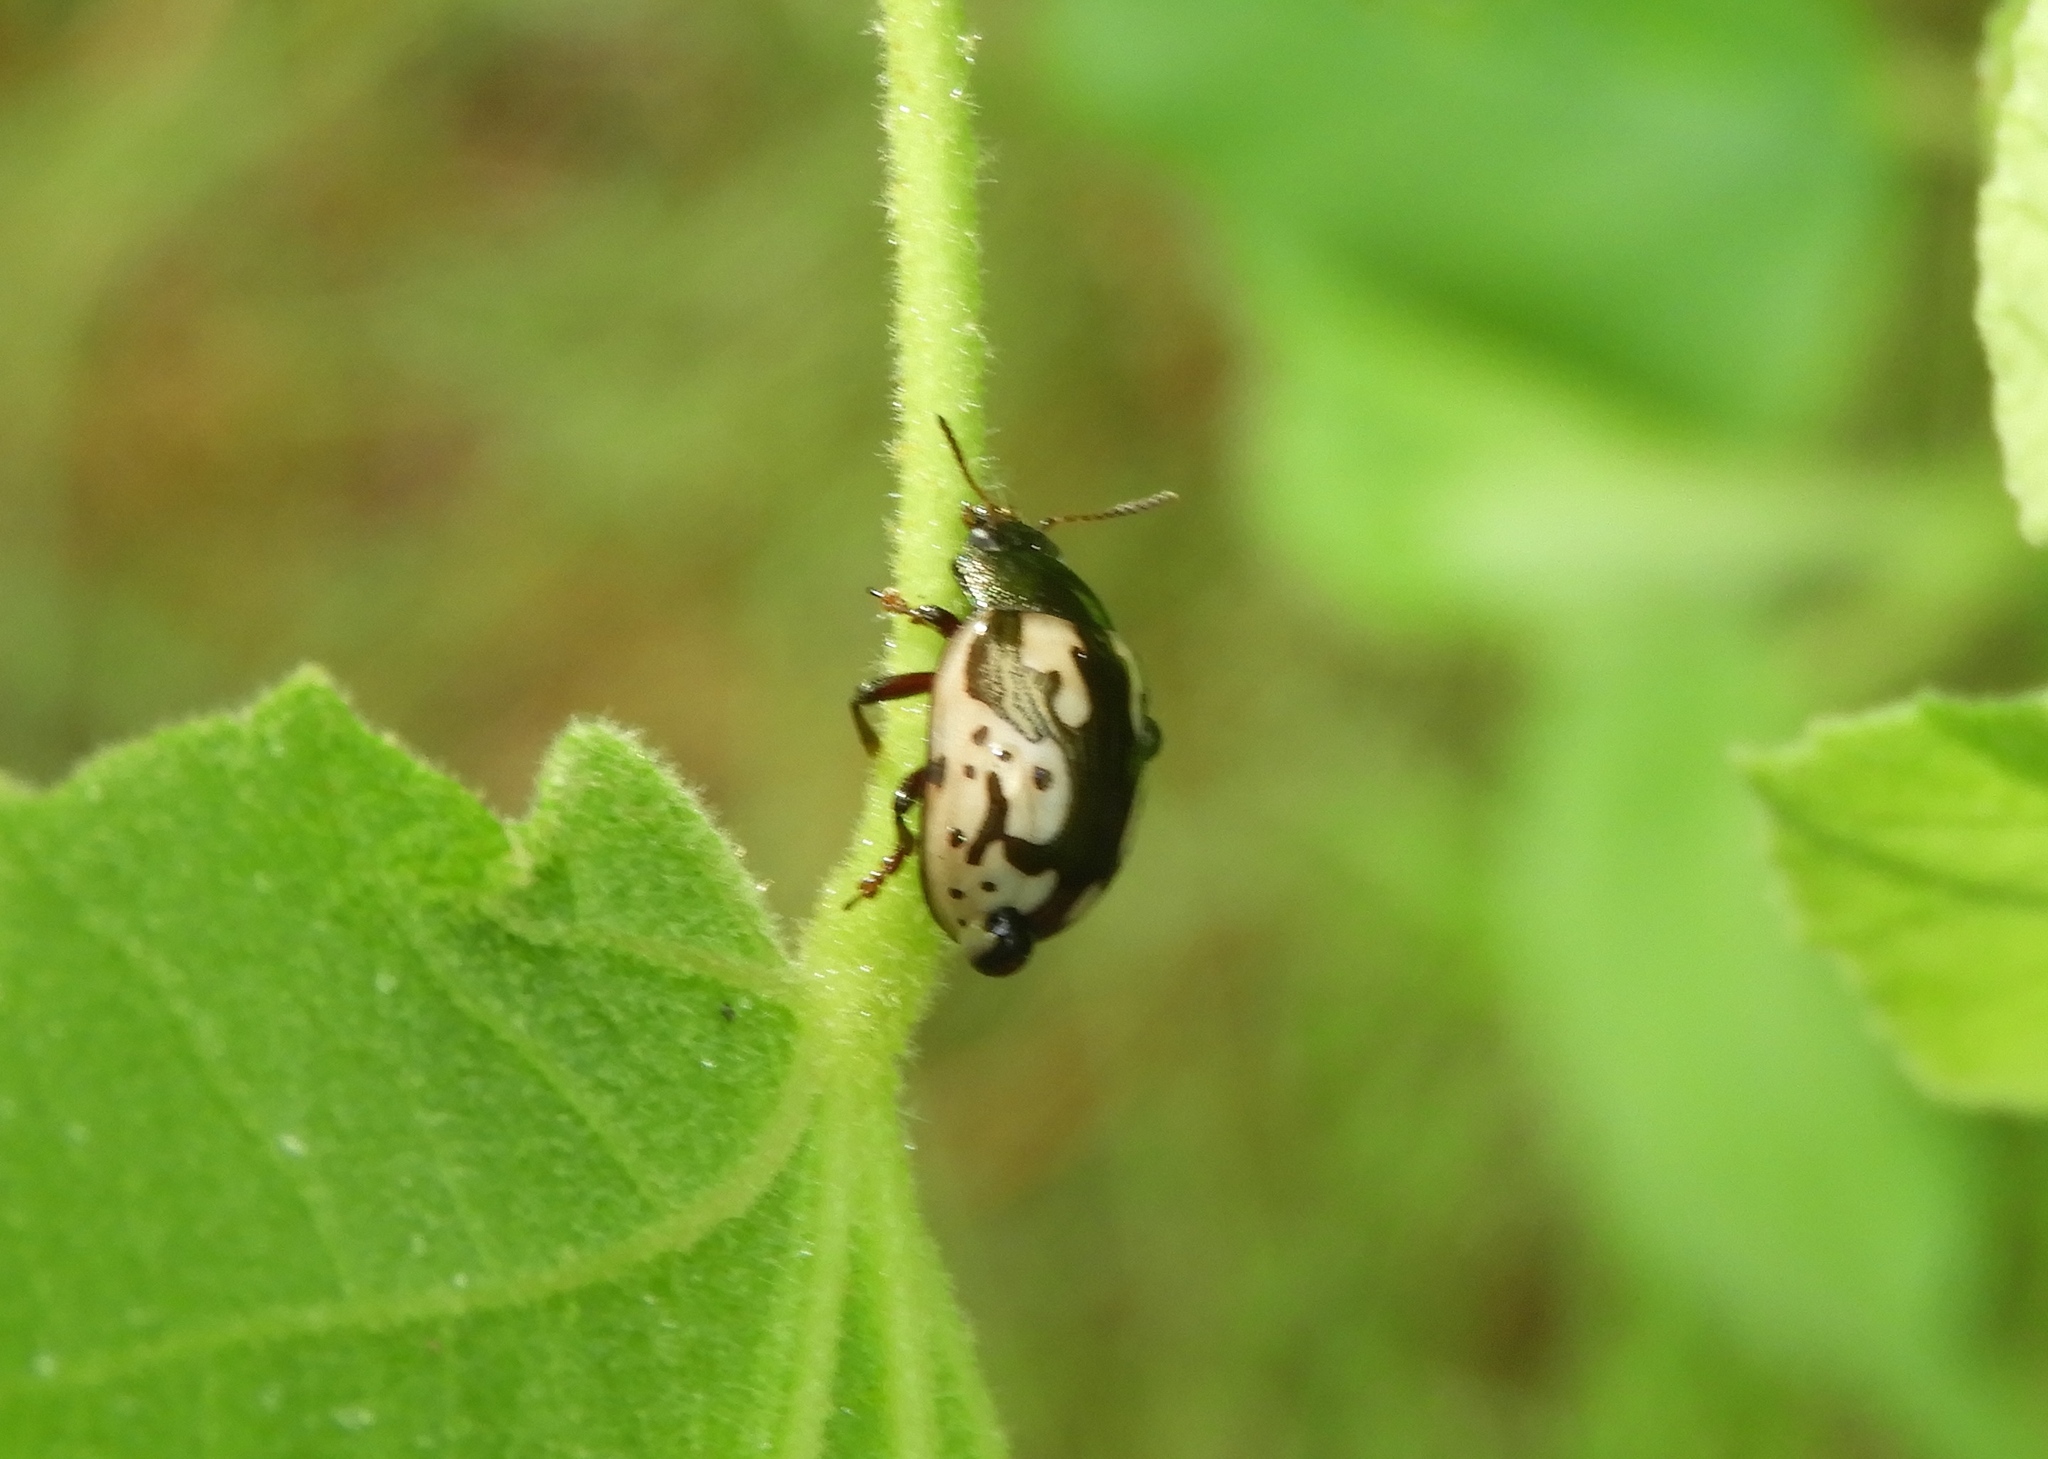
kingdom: Animalia
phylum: Arthropoda
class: Insecta
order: Coleoptera
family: Chrysomelidae
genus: Calligrapha
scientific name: Calligrapha ancoralis
